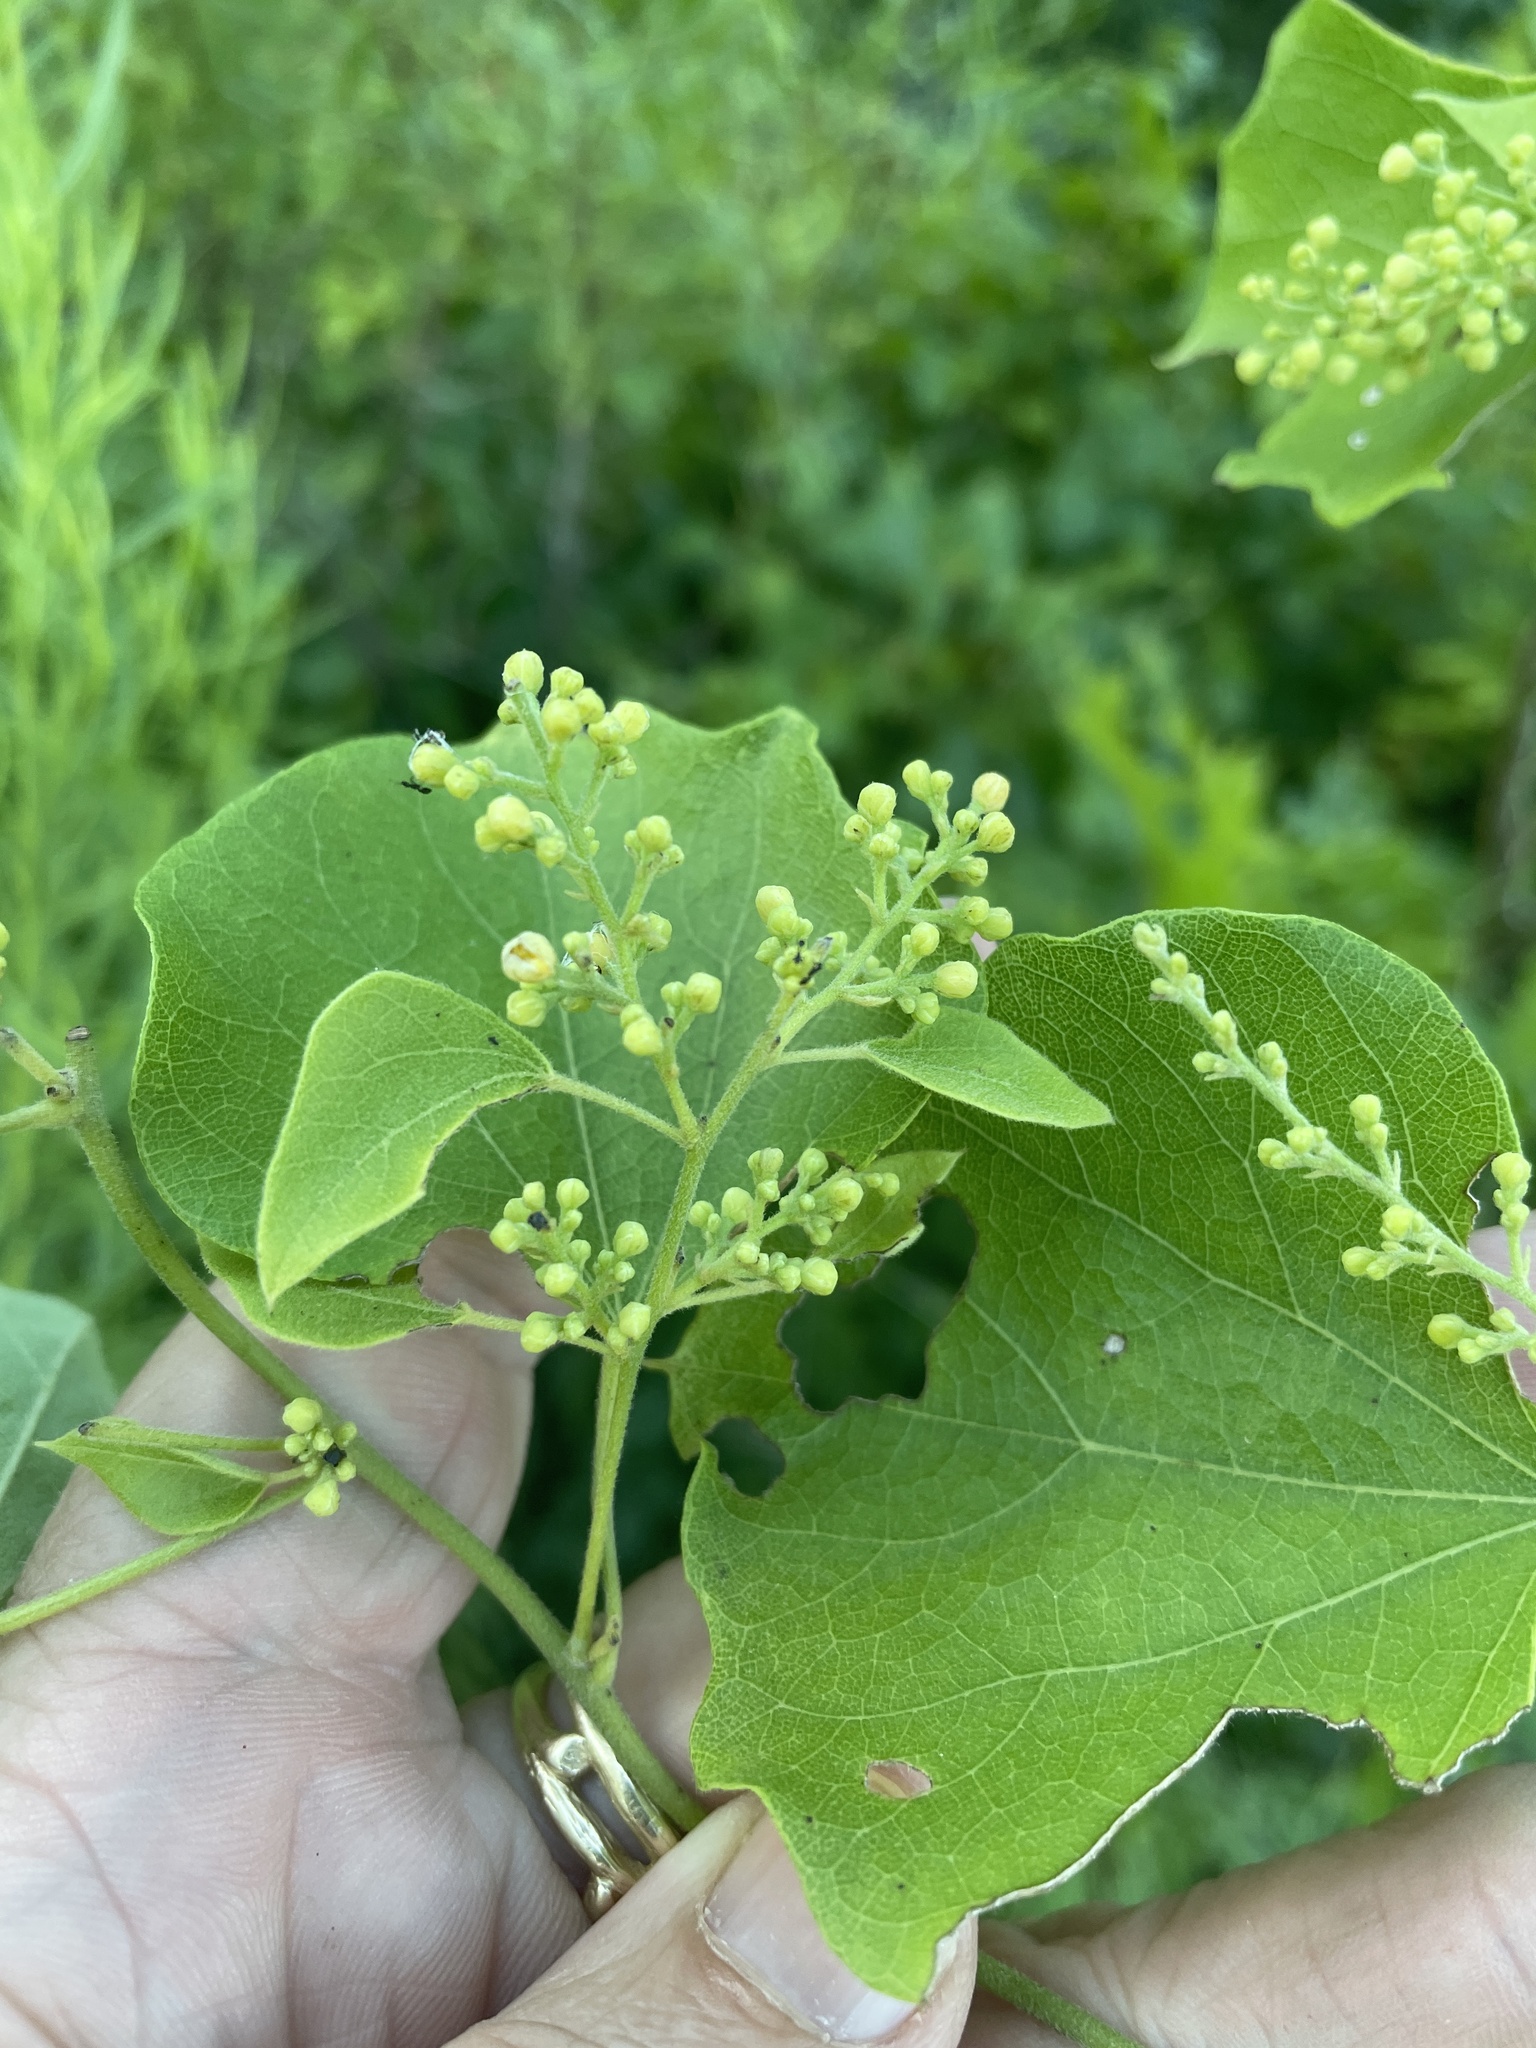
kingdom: Plantae
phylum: Tracheophyta
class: Magnoliopsida
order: Ranunculales
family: Menispermaceae
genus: Cocculus
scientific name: Cocculus carolinus
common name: Carolina moonseed
